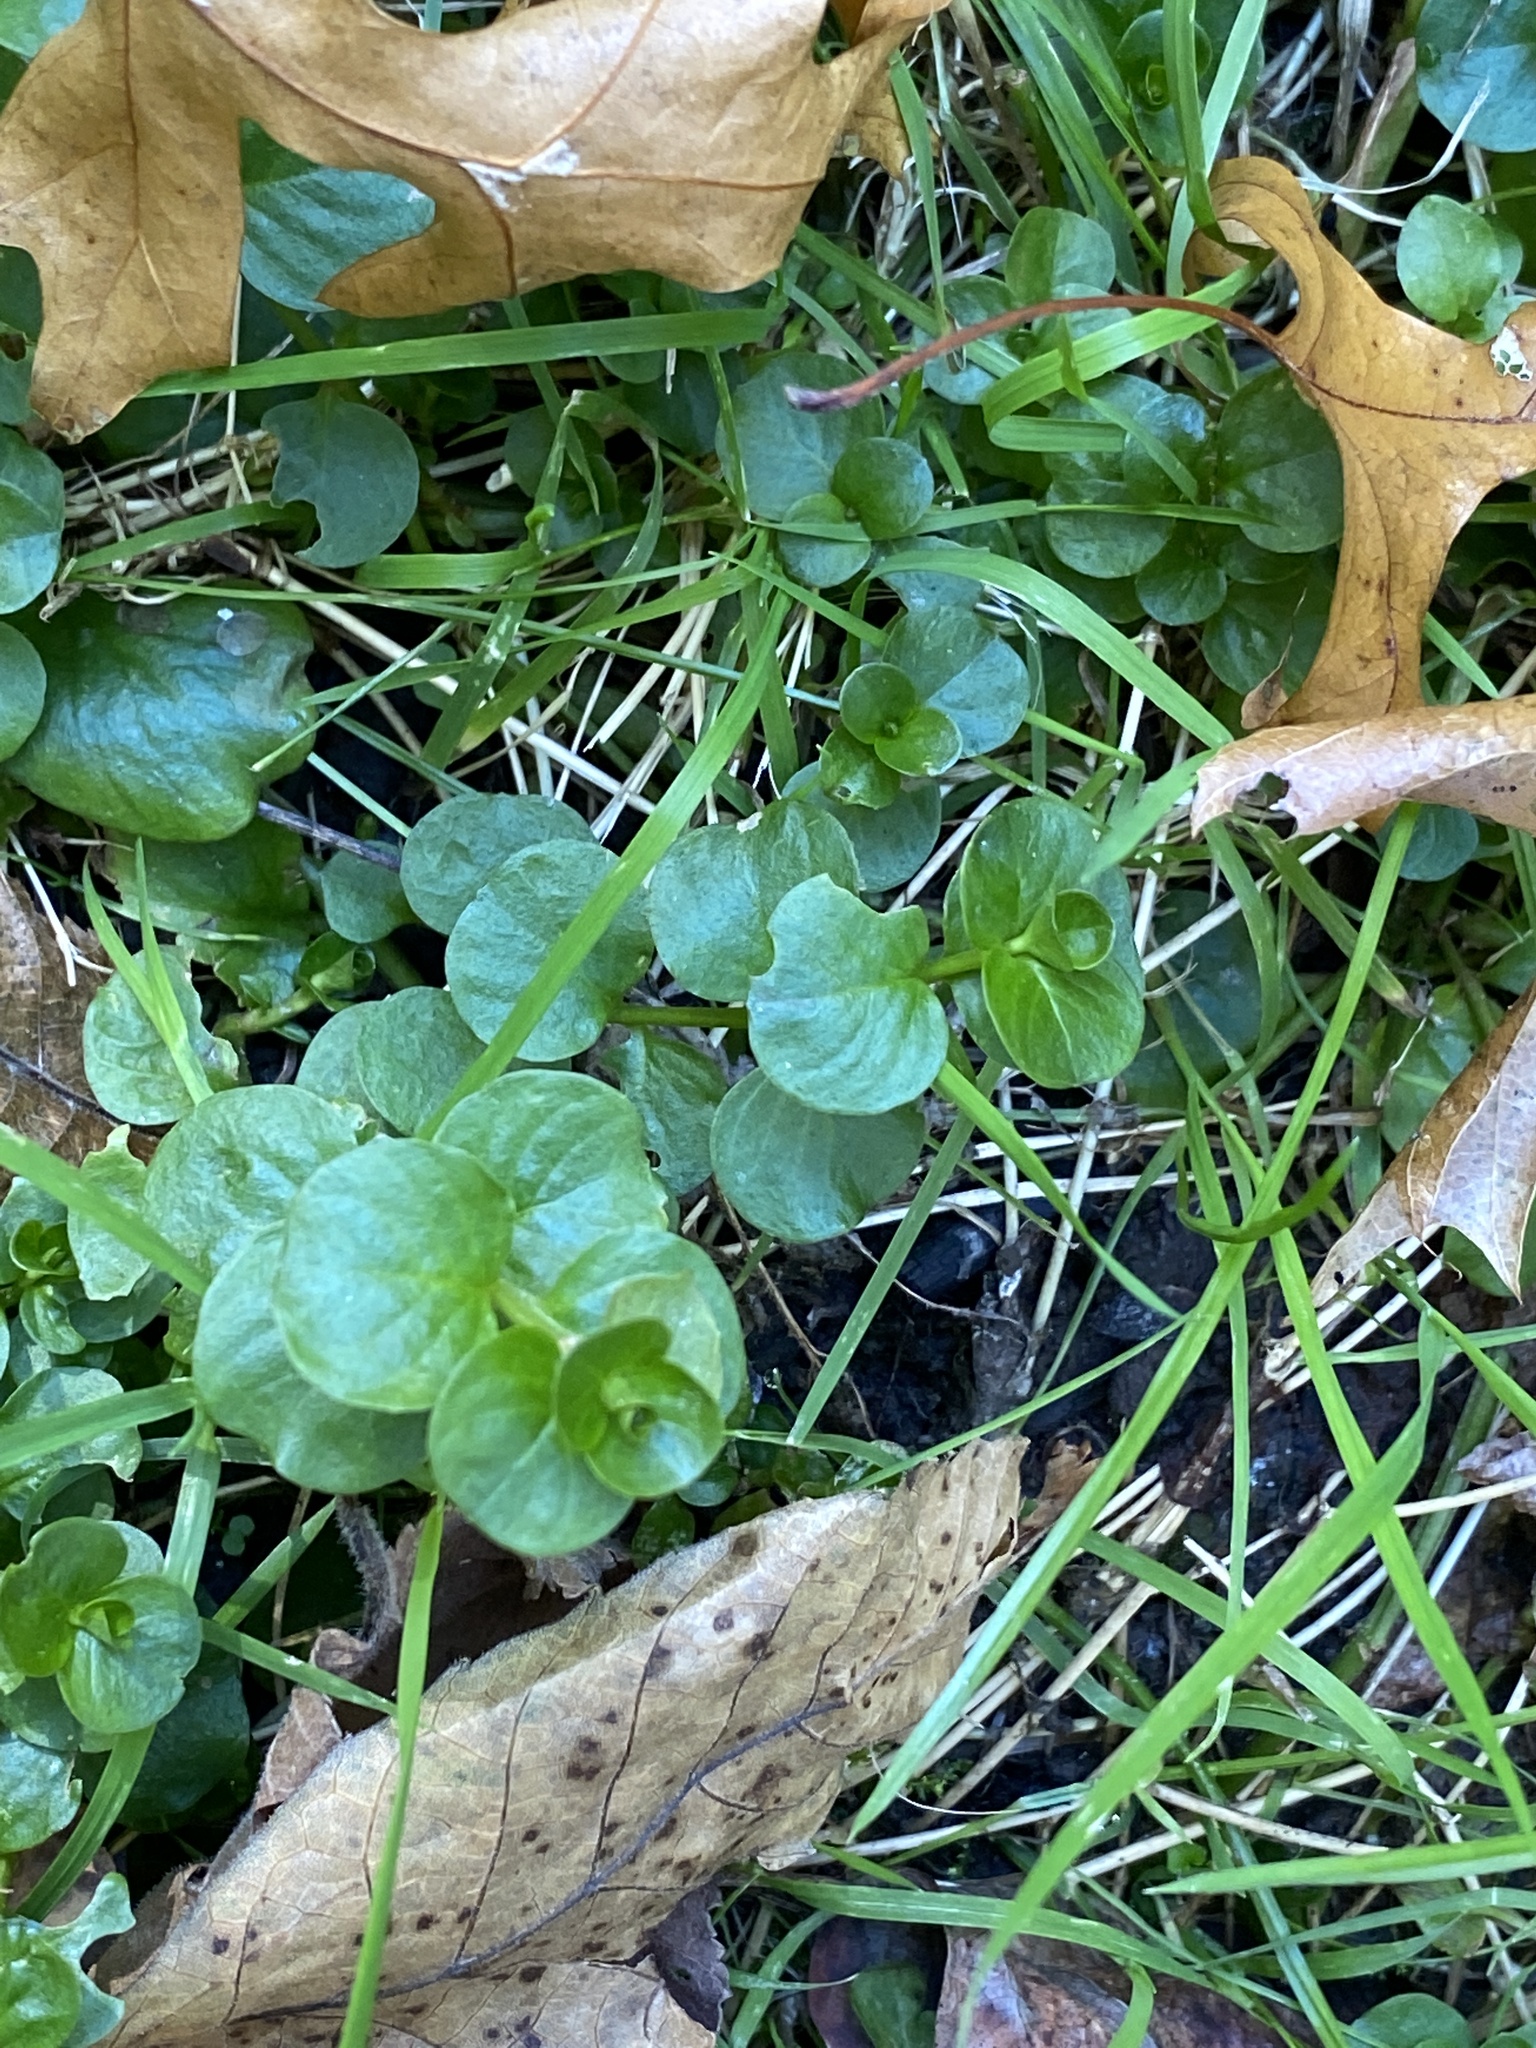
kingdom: Plantae
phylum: Tracheophyta
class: Magnoliopsida
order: Ericales
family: Primulaceae
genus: Lysimachia
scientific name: Lysimachia nummularia
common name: Moneywort
